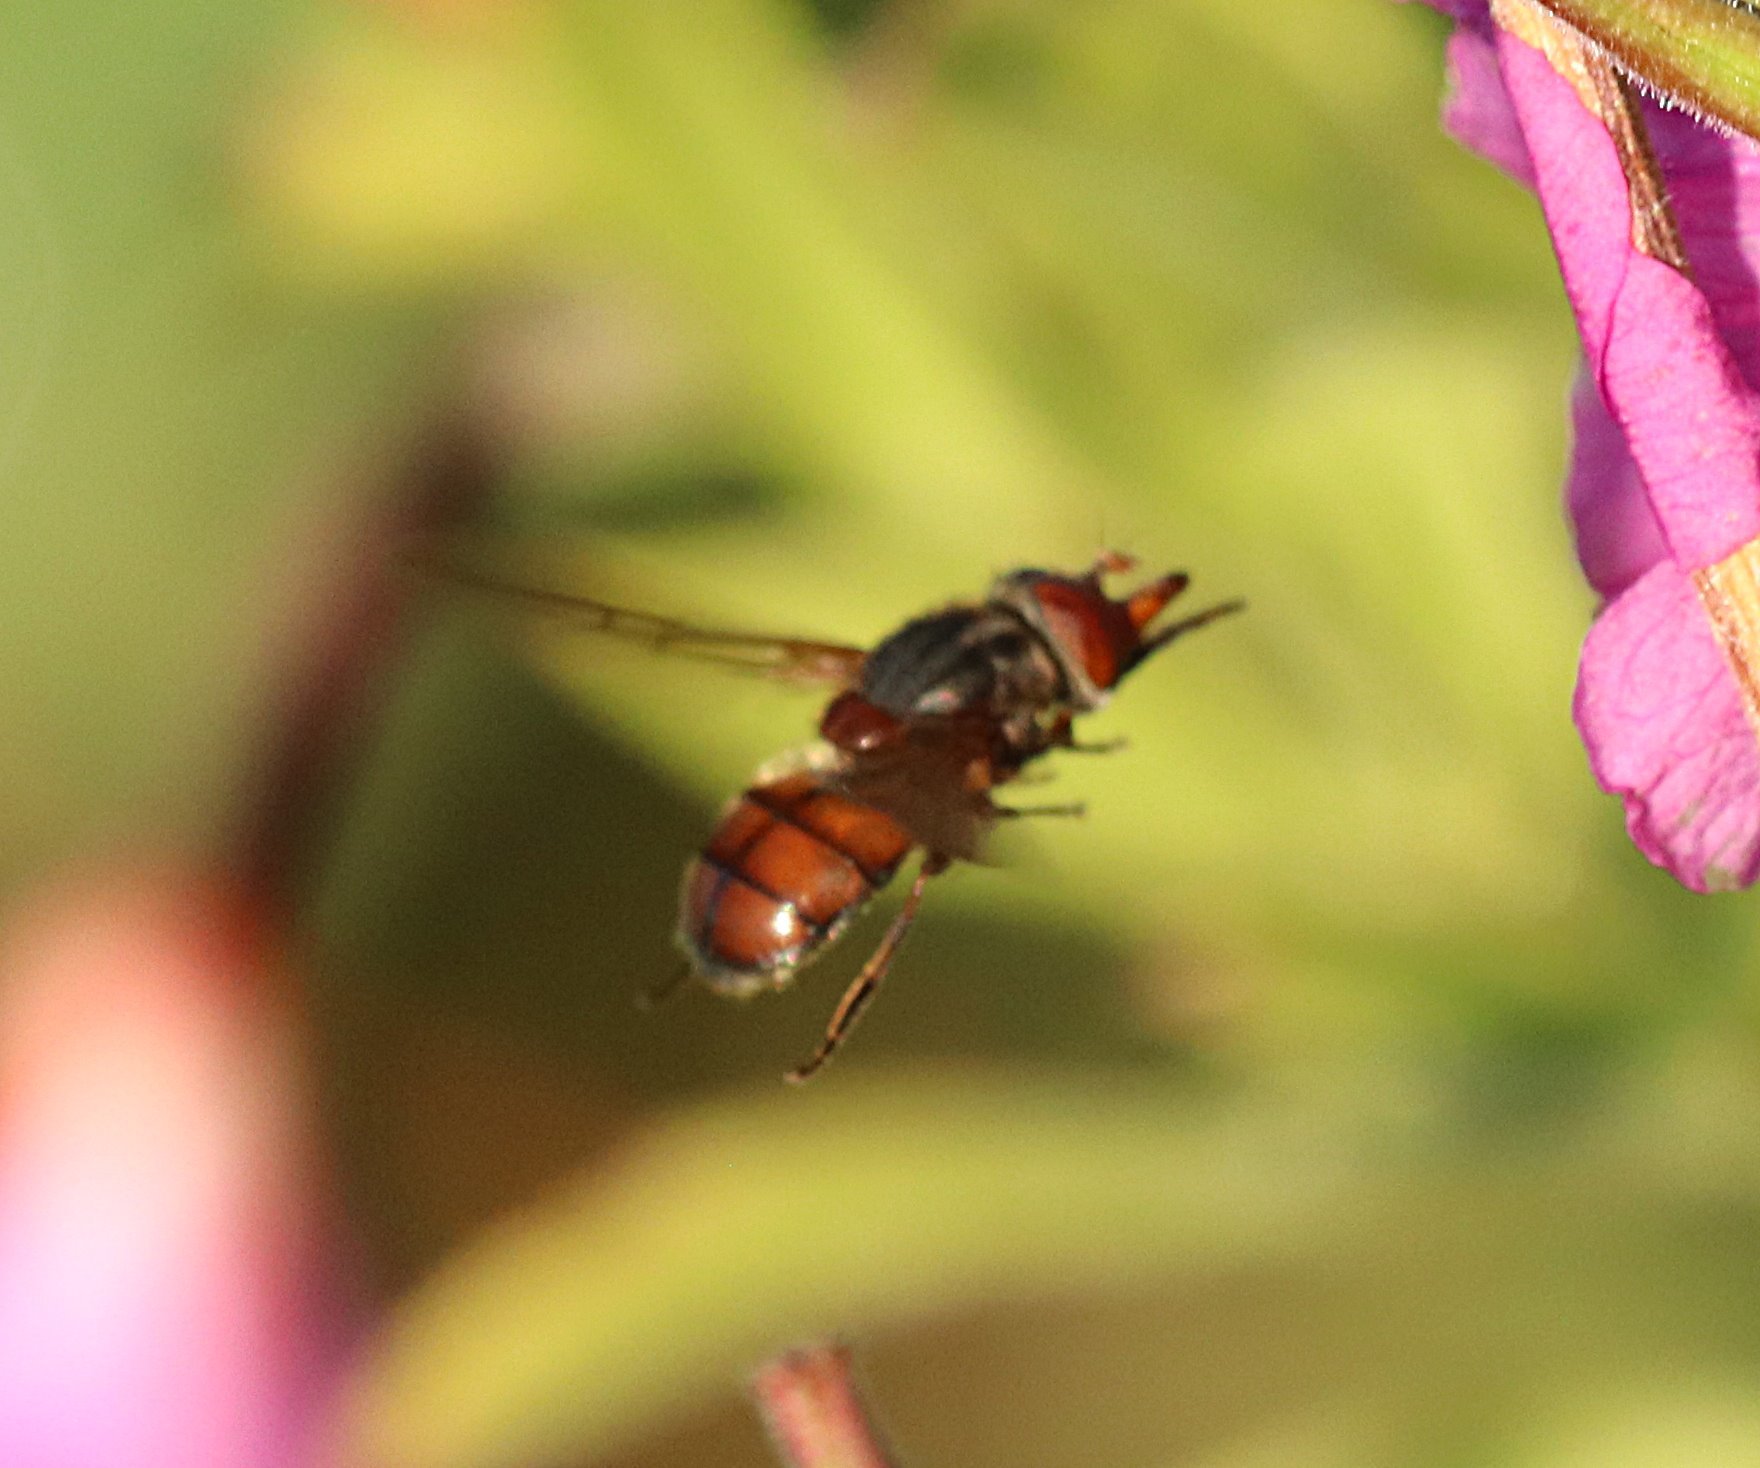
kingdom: Animalia
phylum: Arthropoda
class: Insecta
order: Diptera
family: Syrphidae
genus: Rhingia
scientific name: Rhingia campestris
